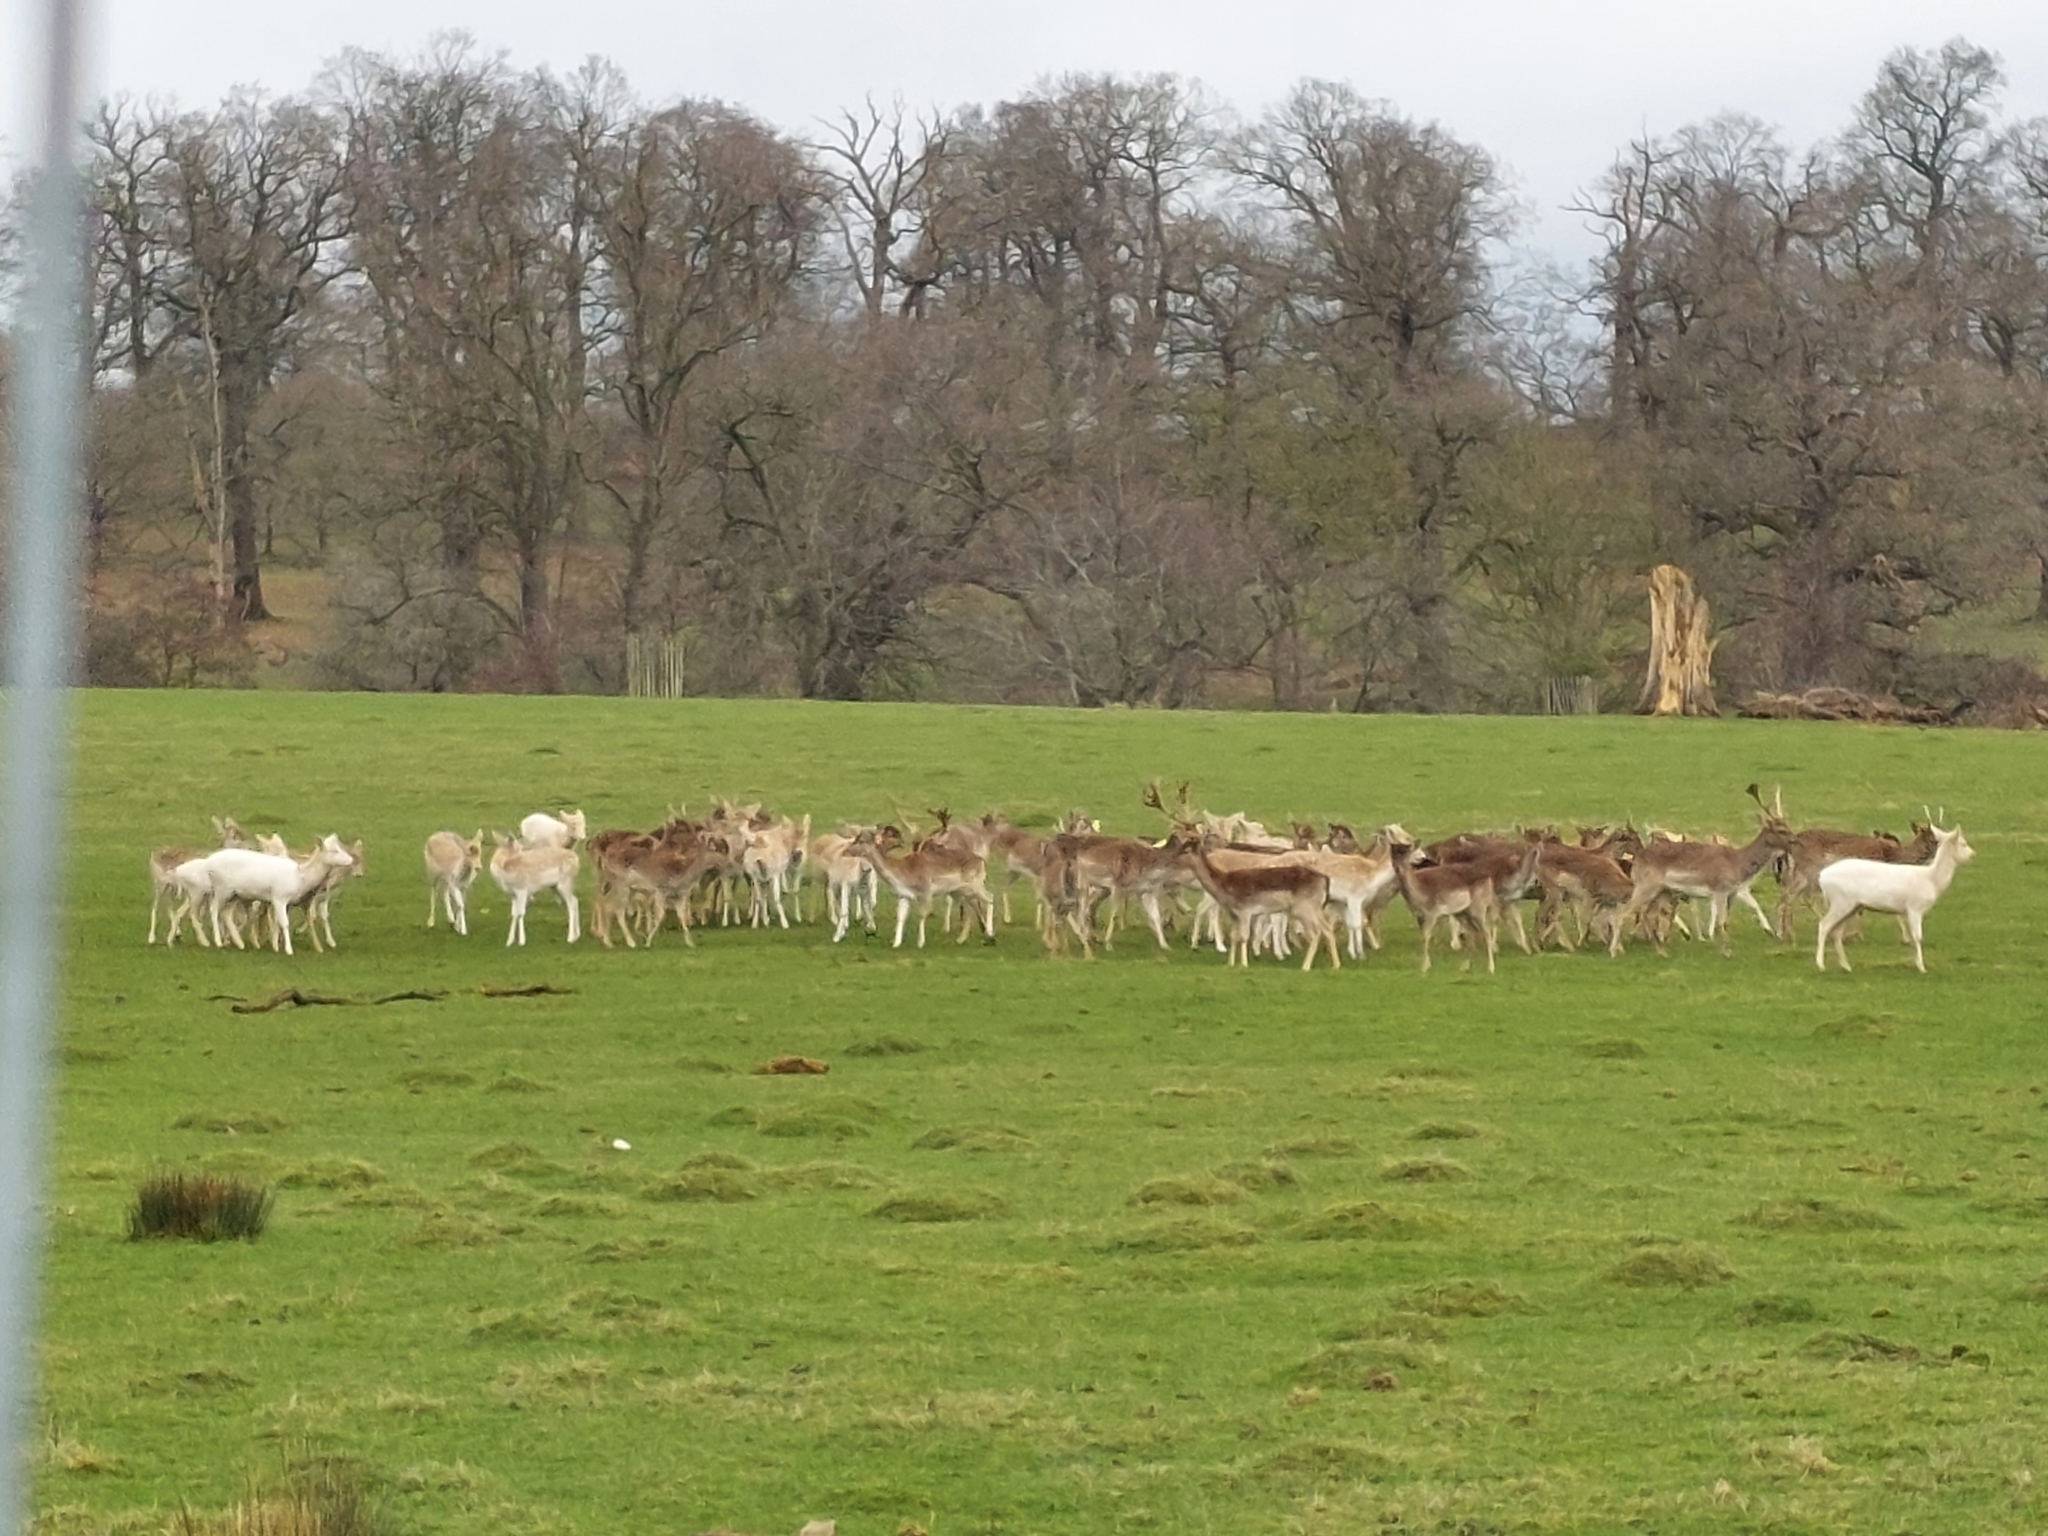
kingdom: Animalia
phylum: Chordata
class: Mammalia
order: Artiodactyla
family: Cervidae
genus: Dama
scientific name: Dama dama
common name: Fallow deer
